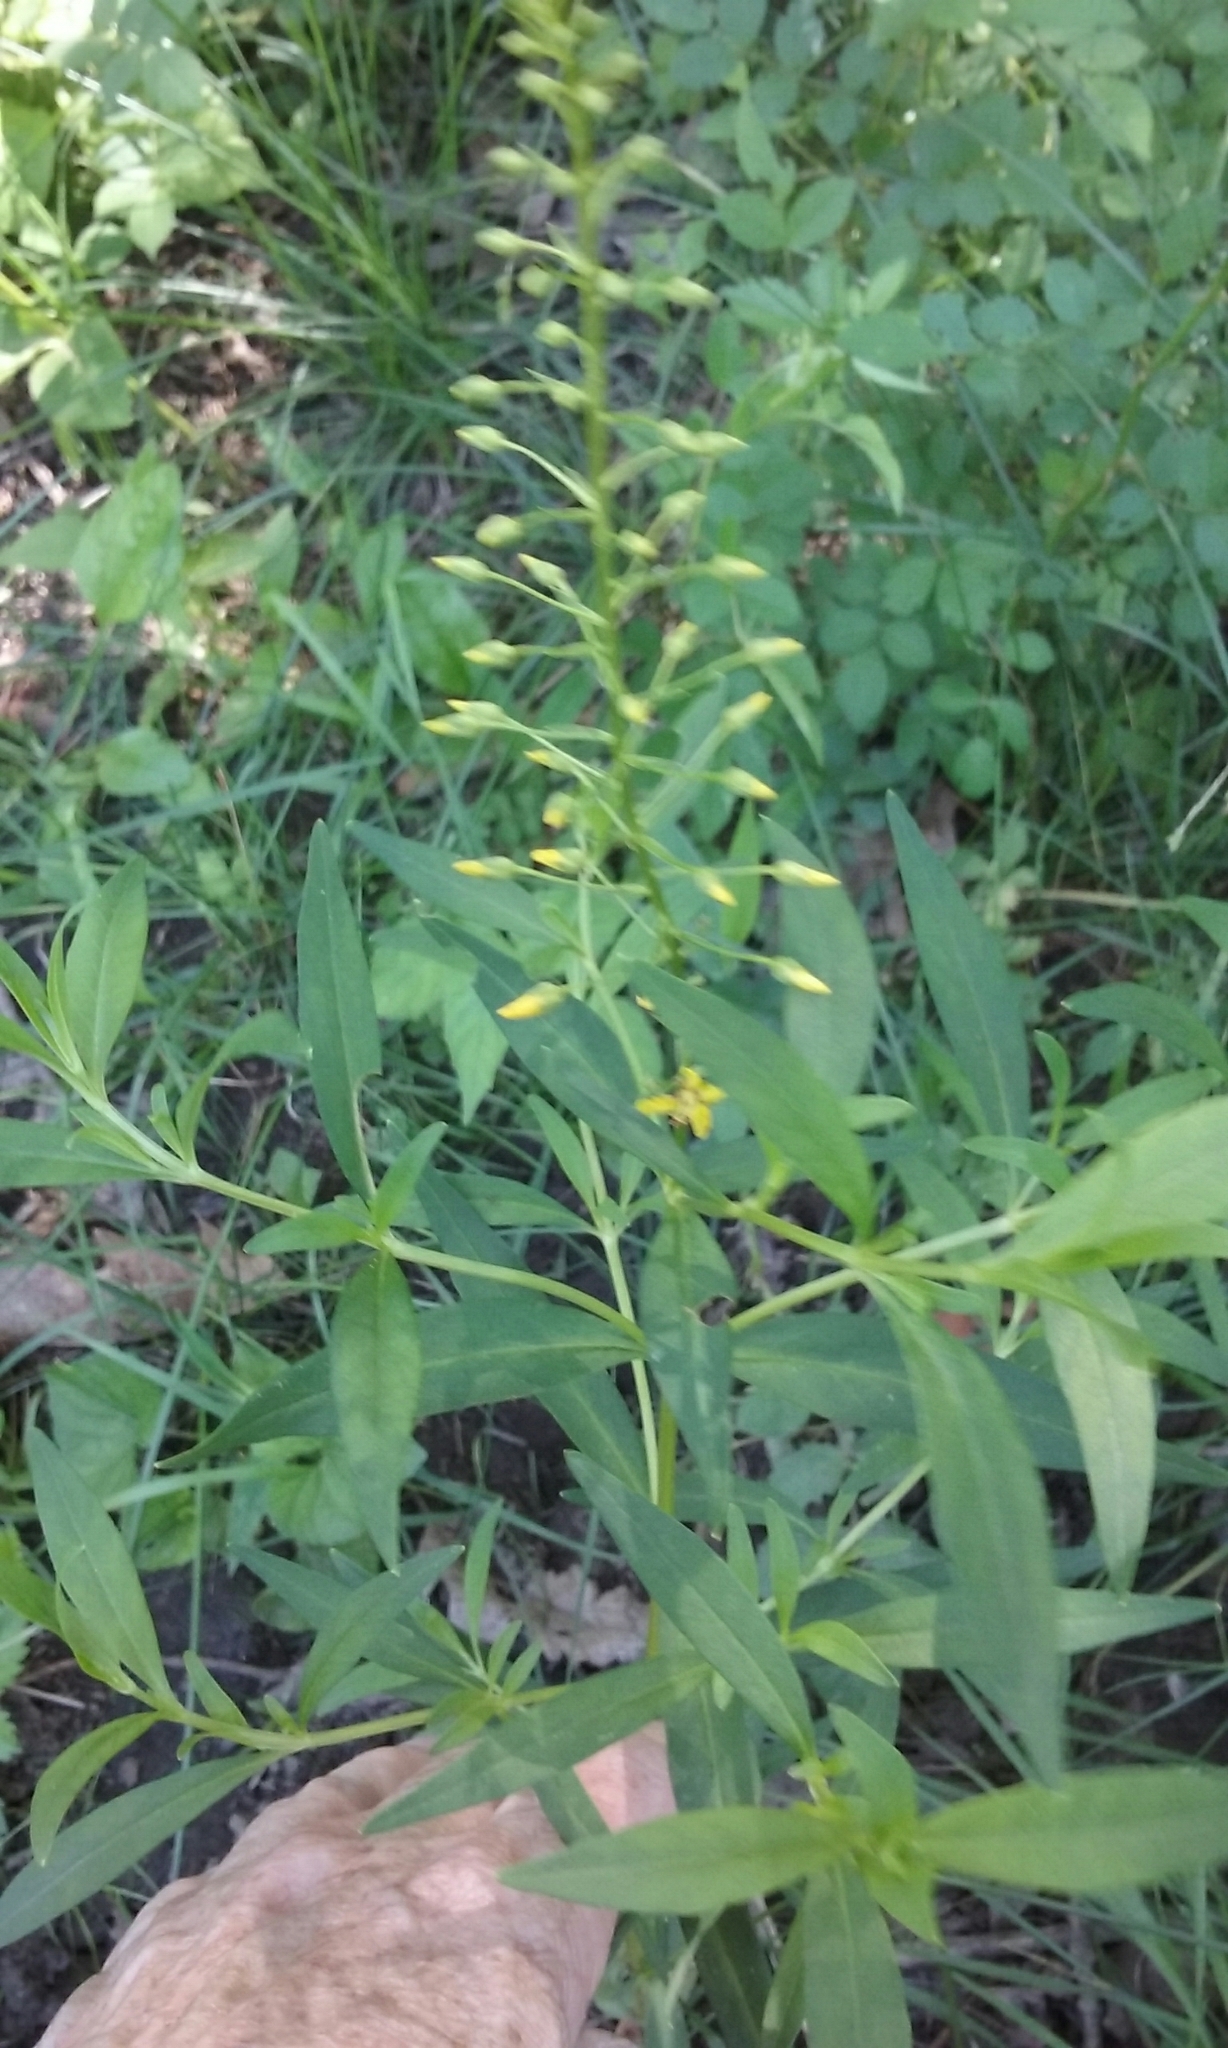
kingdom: Plantae
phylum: Tracheophyta
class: Magnoliopsida
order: Ericales
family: Primulaceae
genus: Lysimachia
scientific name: Lysimachia terrestris
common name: Lake loosestrife
